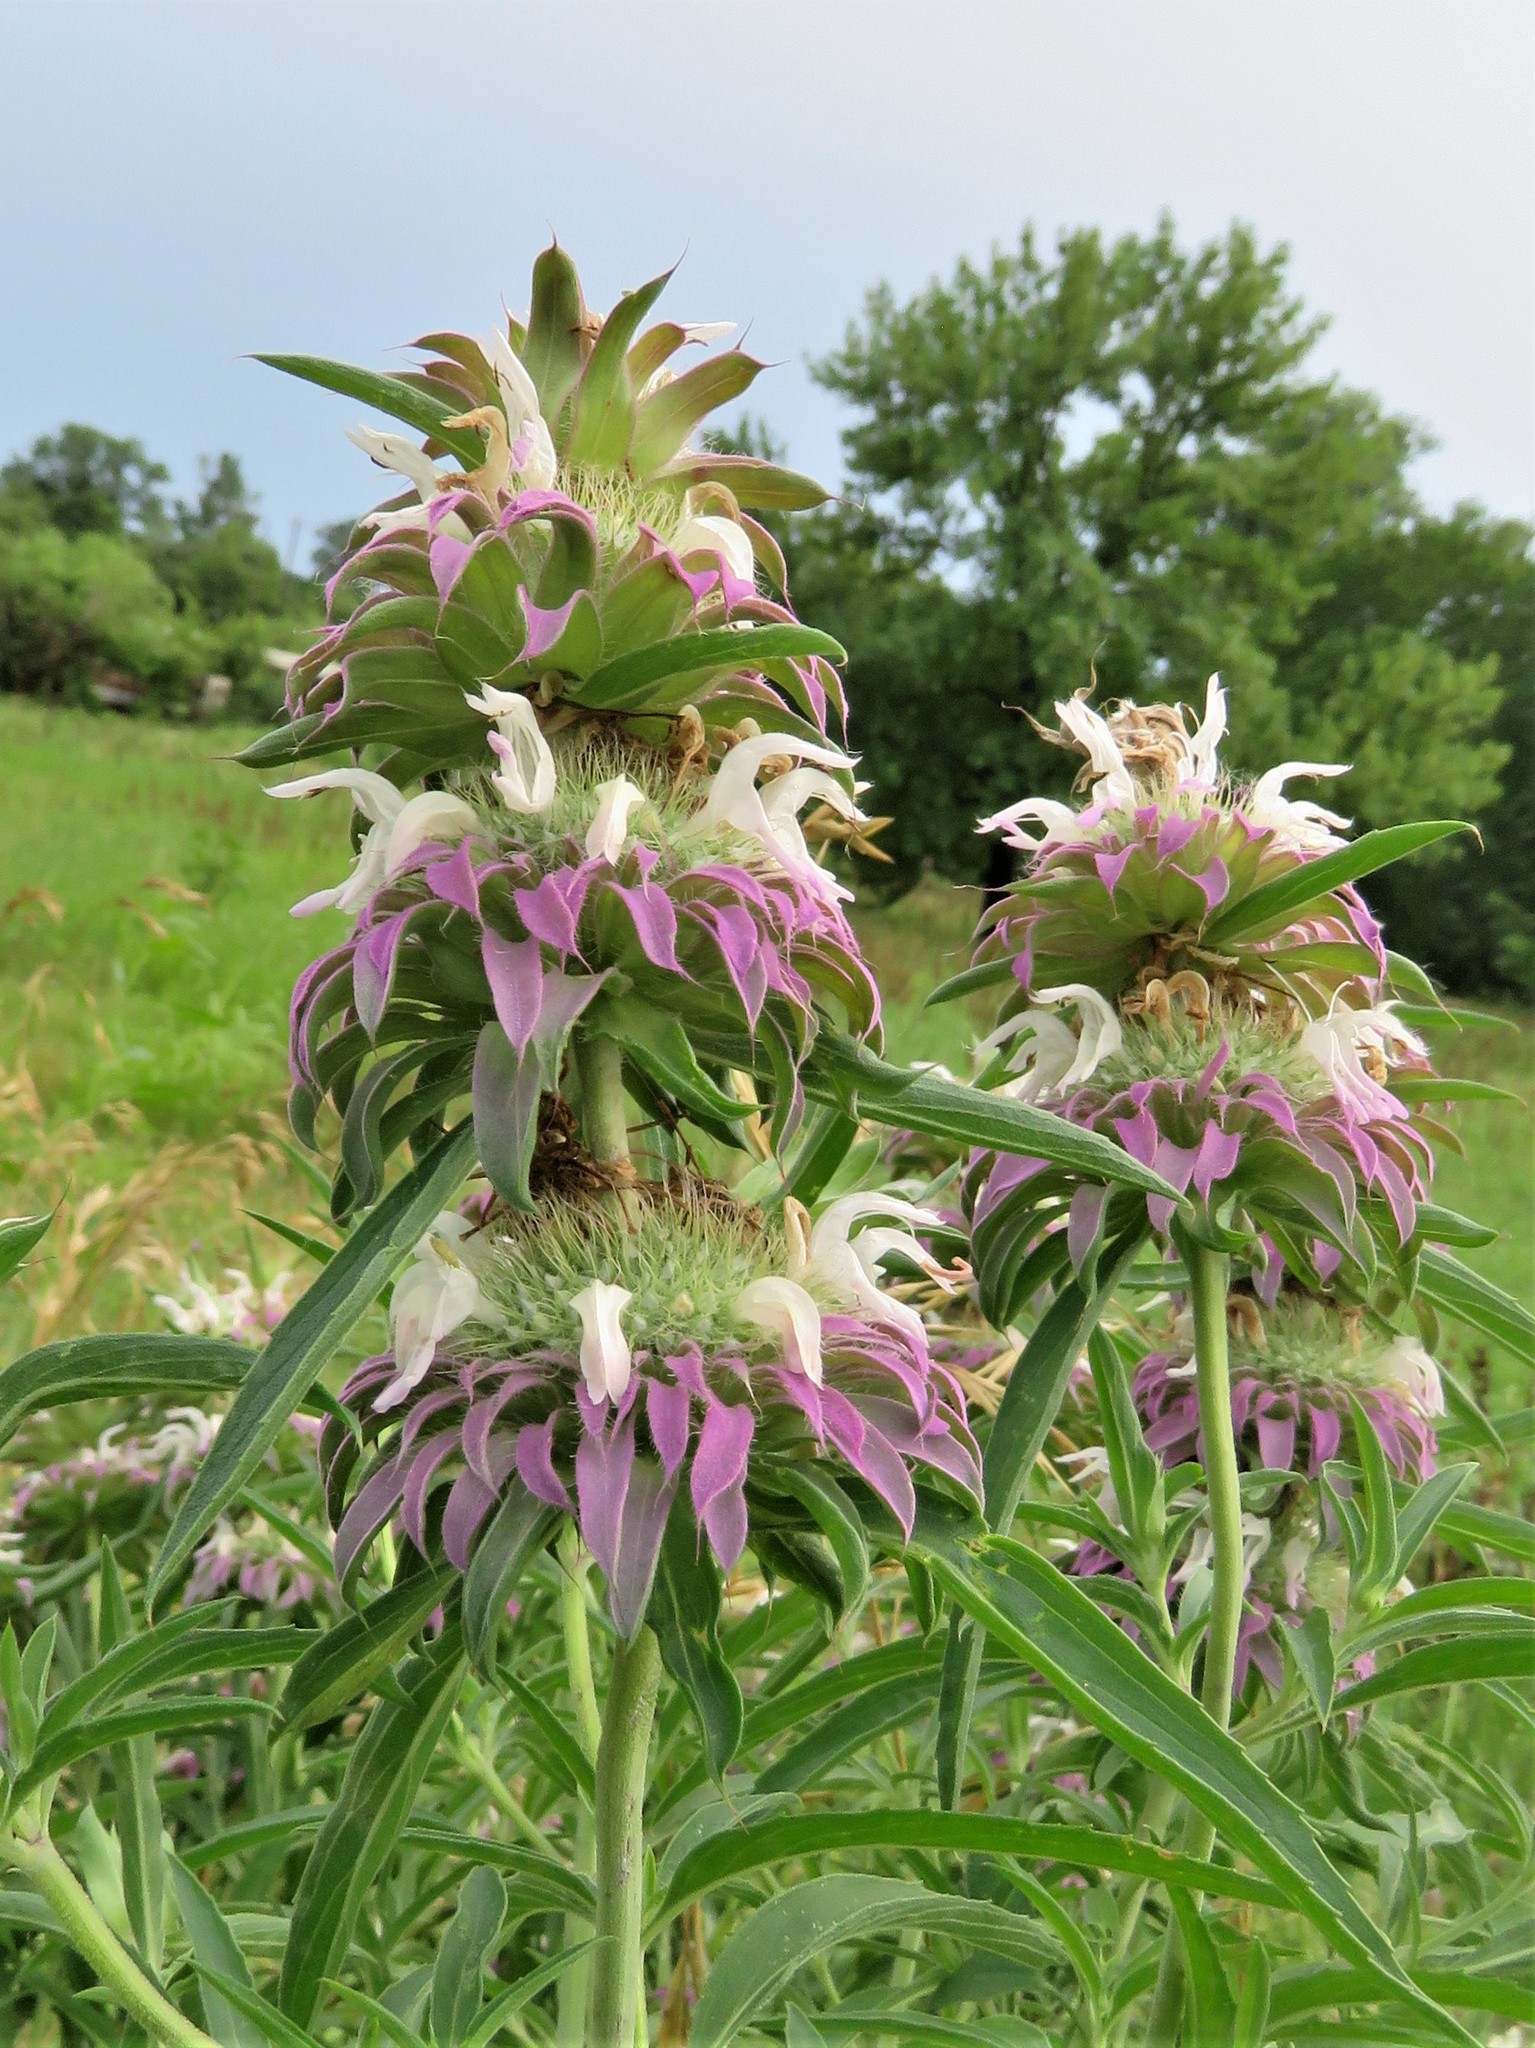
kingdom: Plantae
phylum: Tracheophyta
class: Magnoliopsida
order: Lamiales
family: Lamiaceae
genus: Monarda
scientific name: Monarda citriodora
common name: Lemon beebalm
